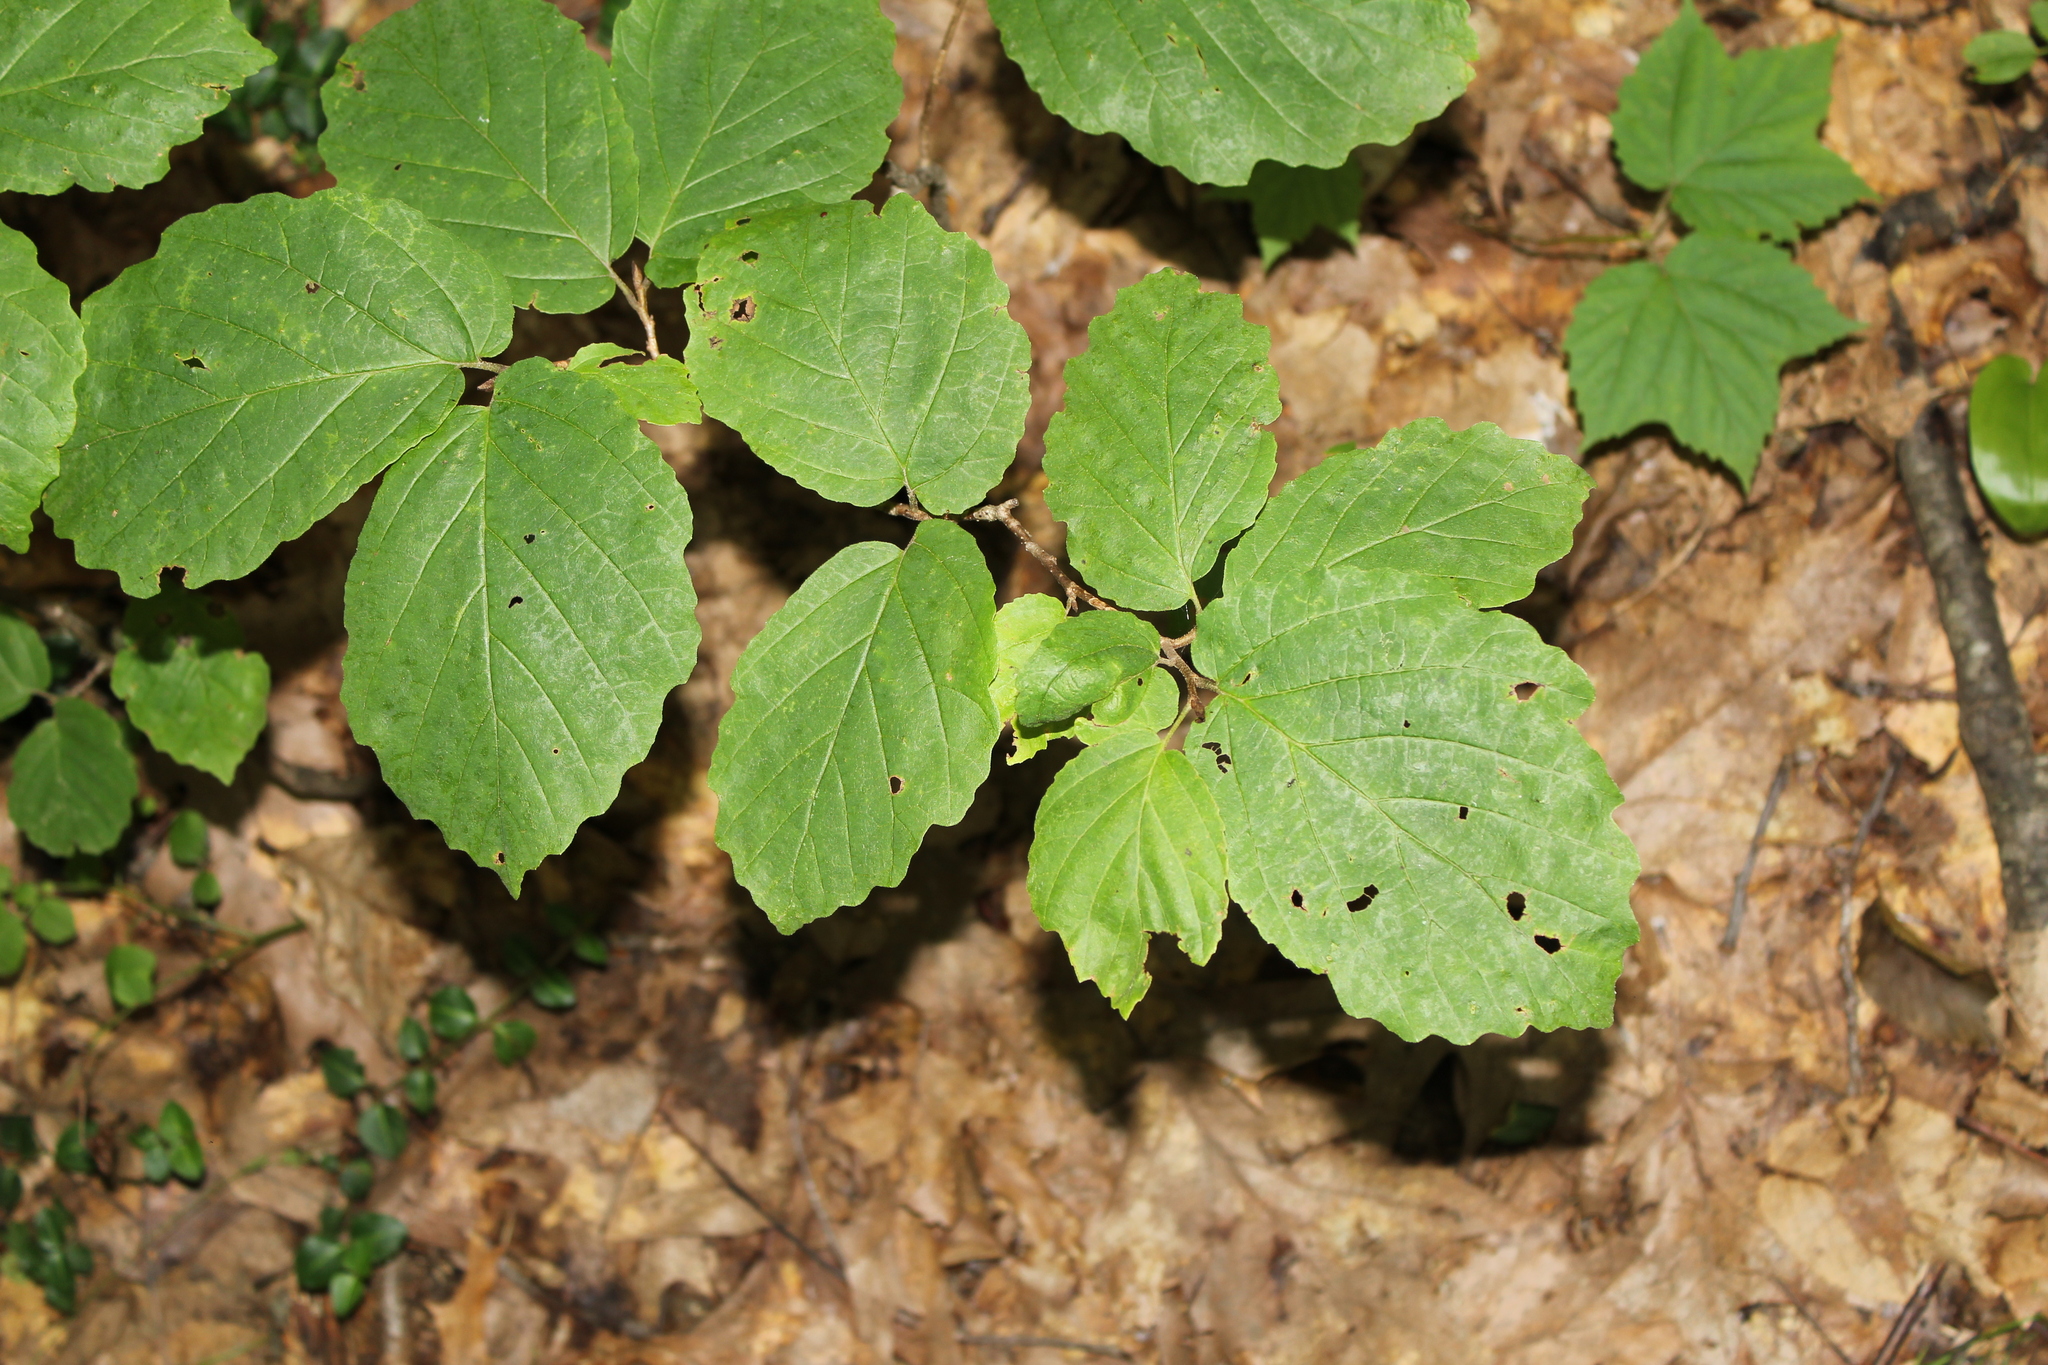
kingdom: Plantae
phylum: Tracheophyta
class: Magnoliopsida
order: Saxifragales
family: Hamamelidaceae
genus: Hamamelis
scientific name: Hamamelis virginiana
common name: Witch-hazel
